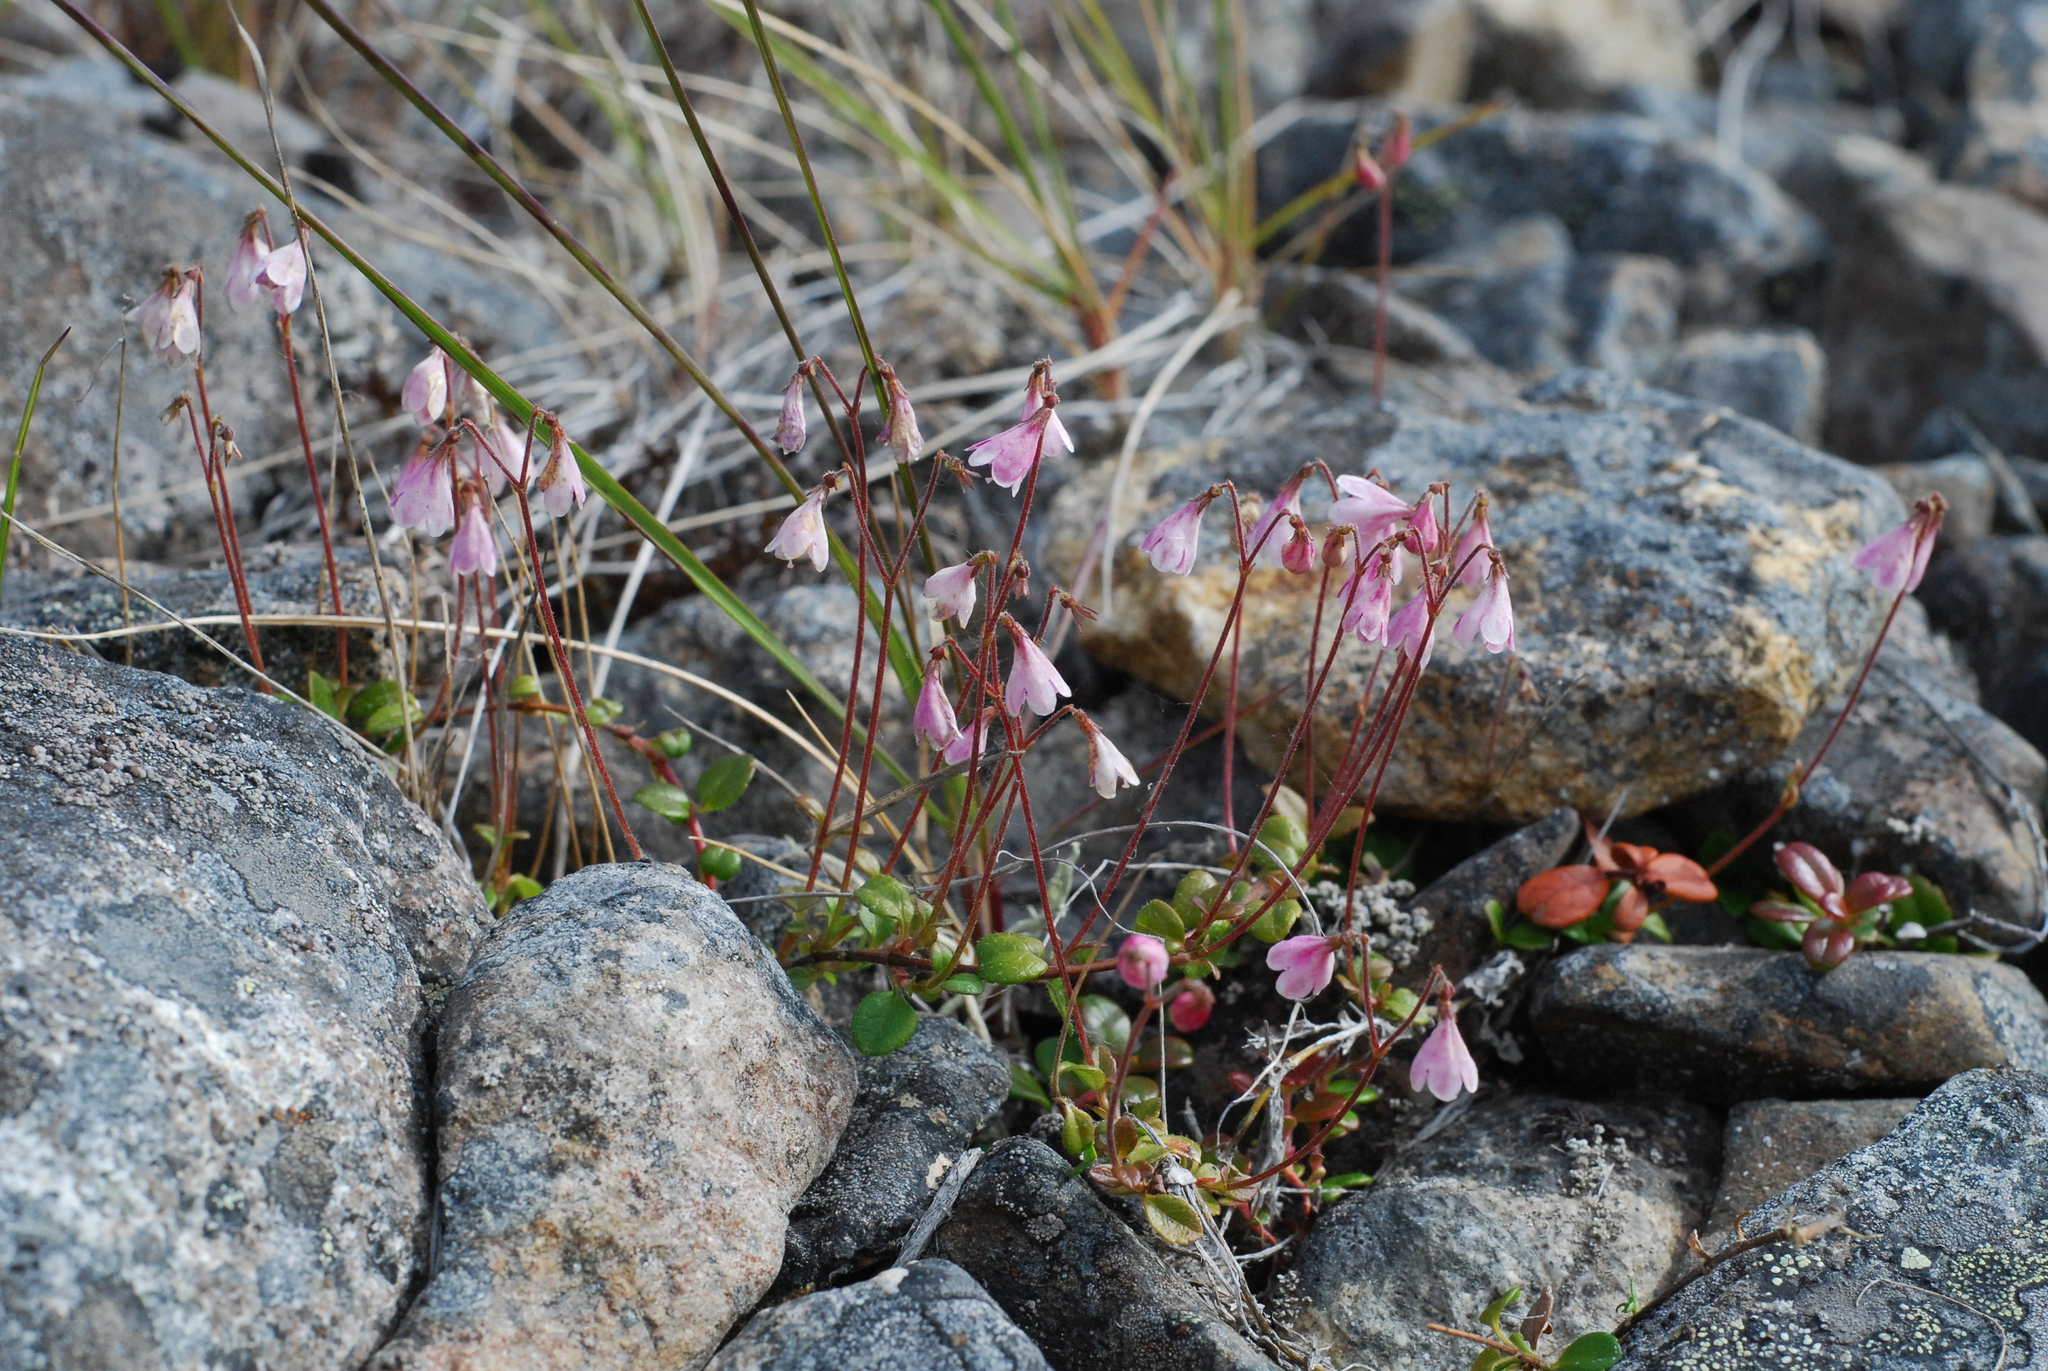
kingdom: Plantae
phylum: Tracheophyta
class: Magnoliopsida
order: Dipsacales
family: Caprifoliaceae
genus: Linnaea
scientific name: Linnaea borealis
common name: Twinflower
